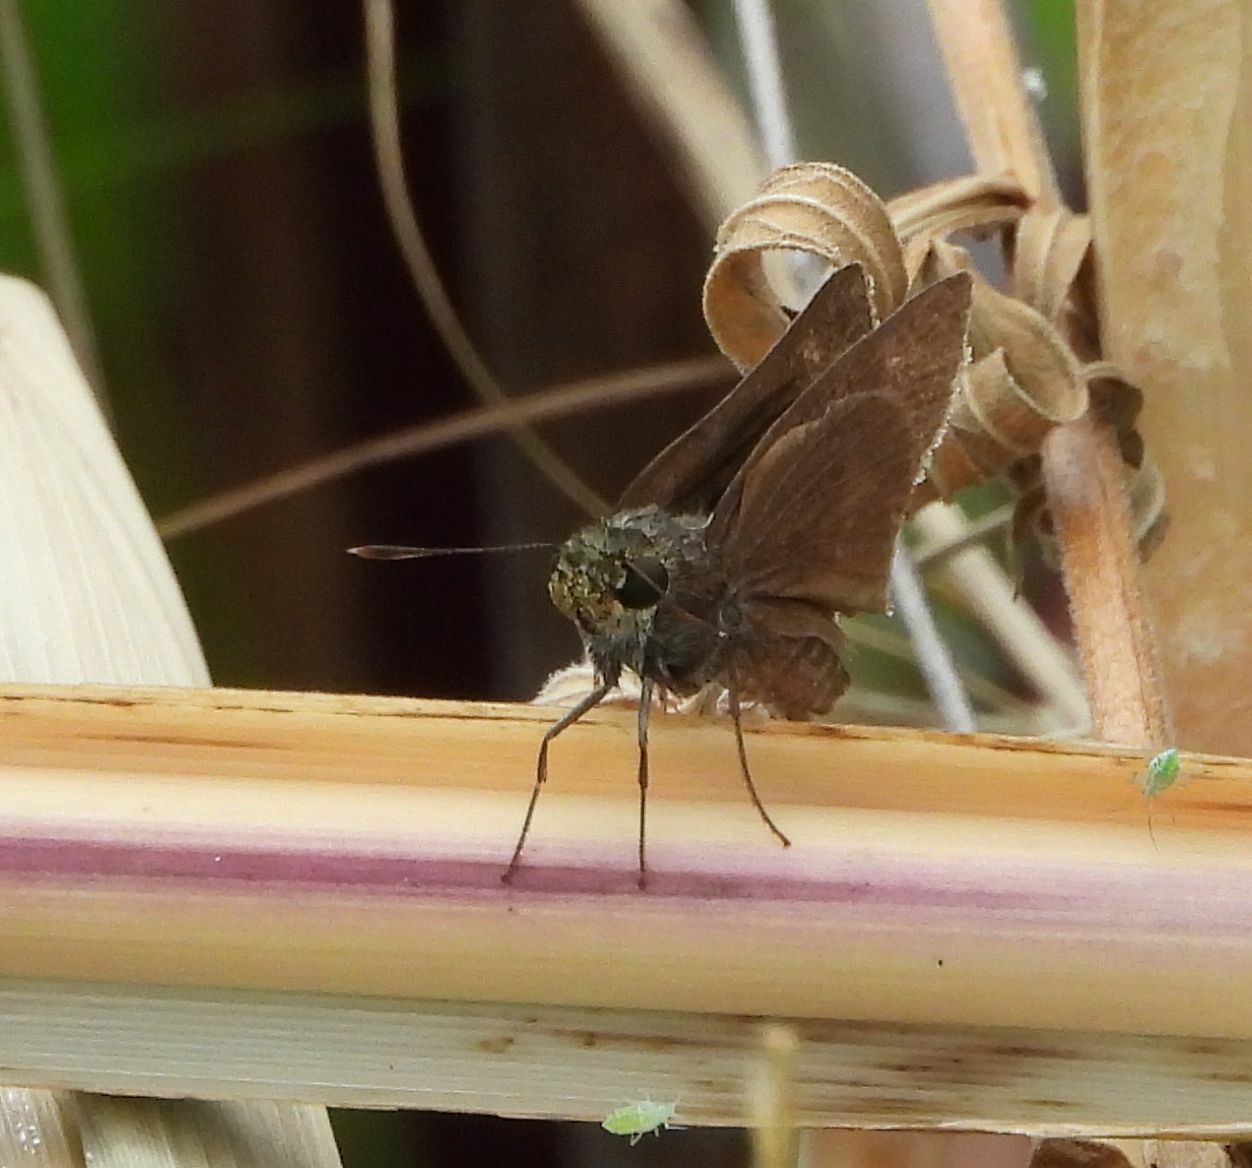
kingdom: Animalia
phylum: Arthropoda
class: Insecta
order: Lepidoptera
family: Hesperiidae
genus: Euphyes
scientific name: Euphyes vestris
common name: Dun skipper
